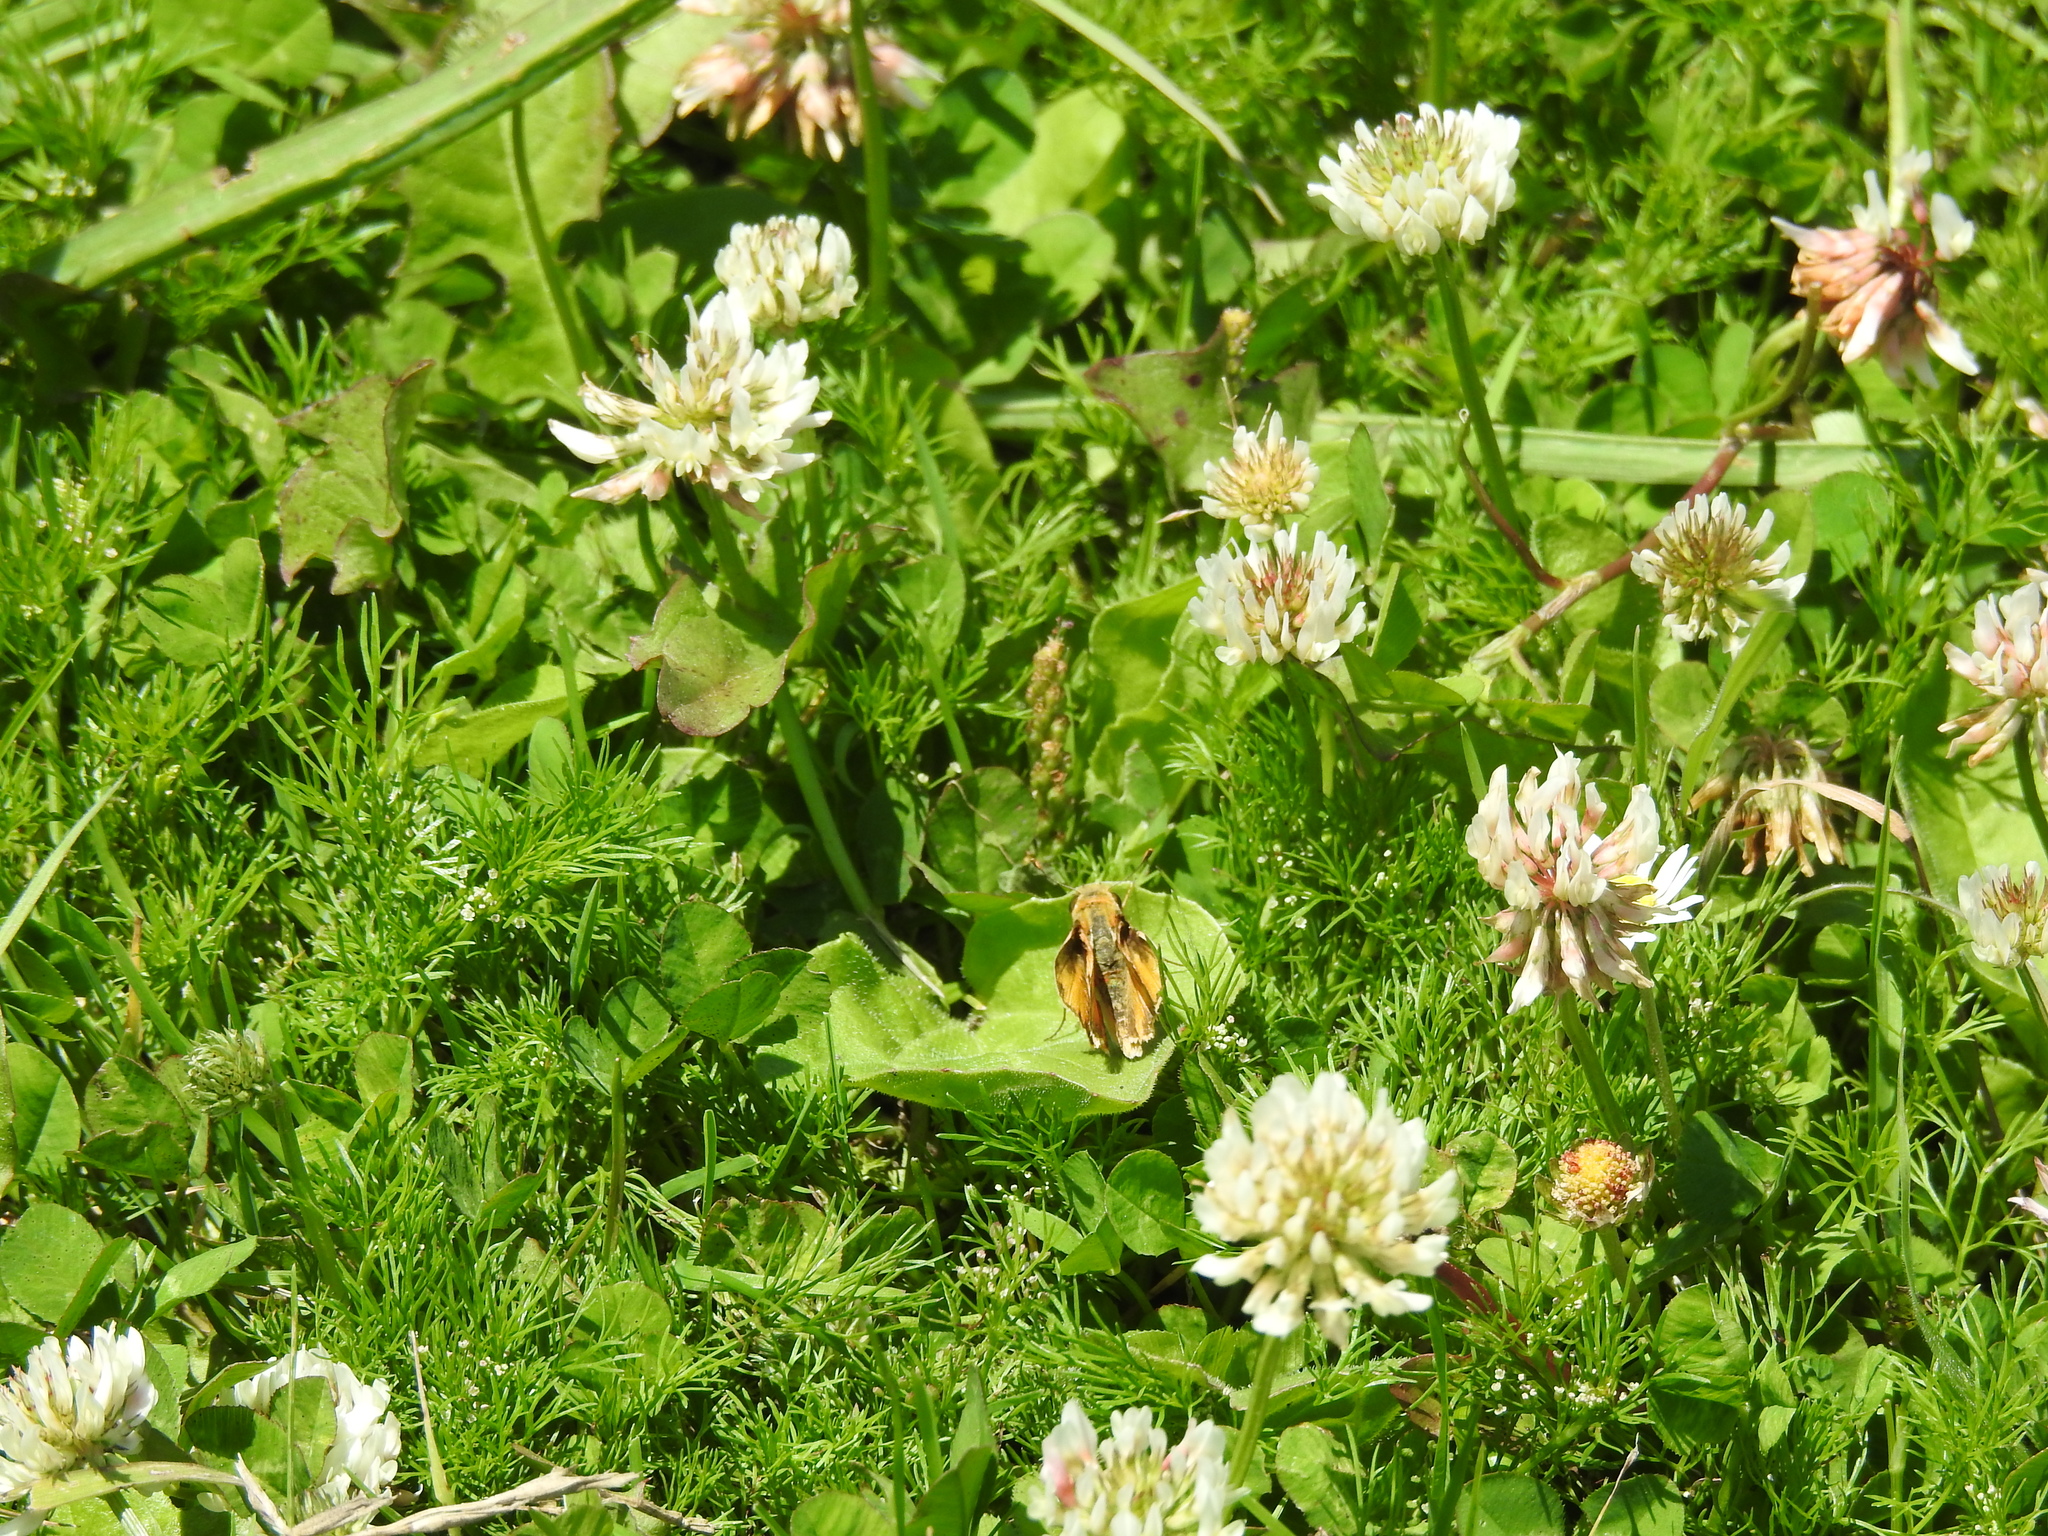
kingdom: Plantae
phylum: Tracheophyta
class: Magnoliopsida
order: Fabales
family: Fabaceae
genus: Trifolium
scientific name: Trifolium repens
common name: White clover
